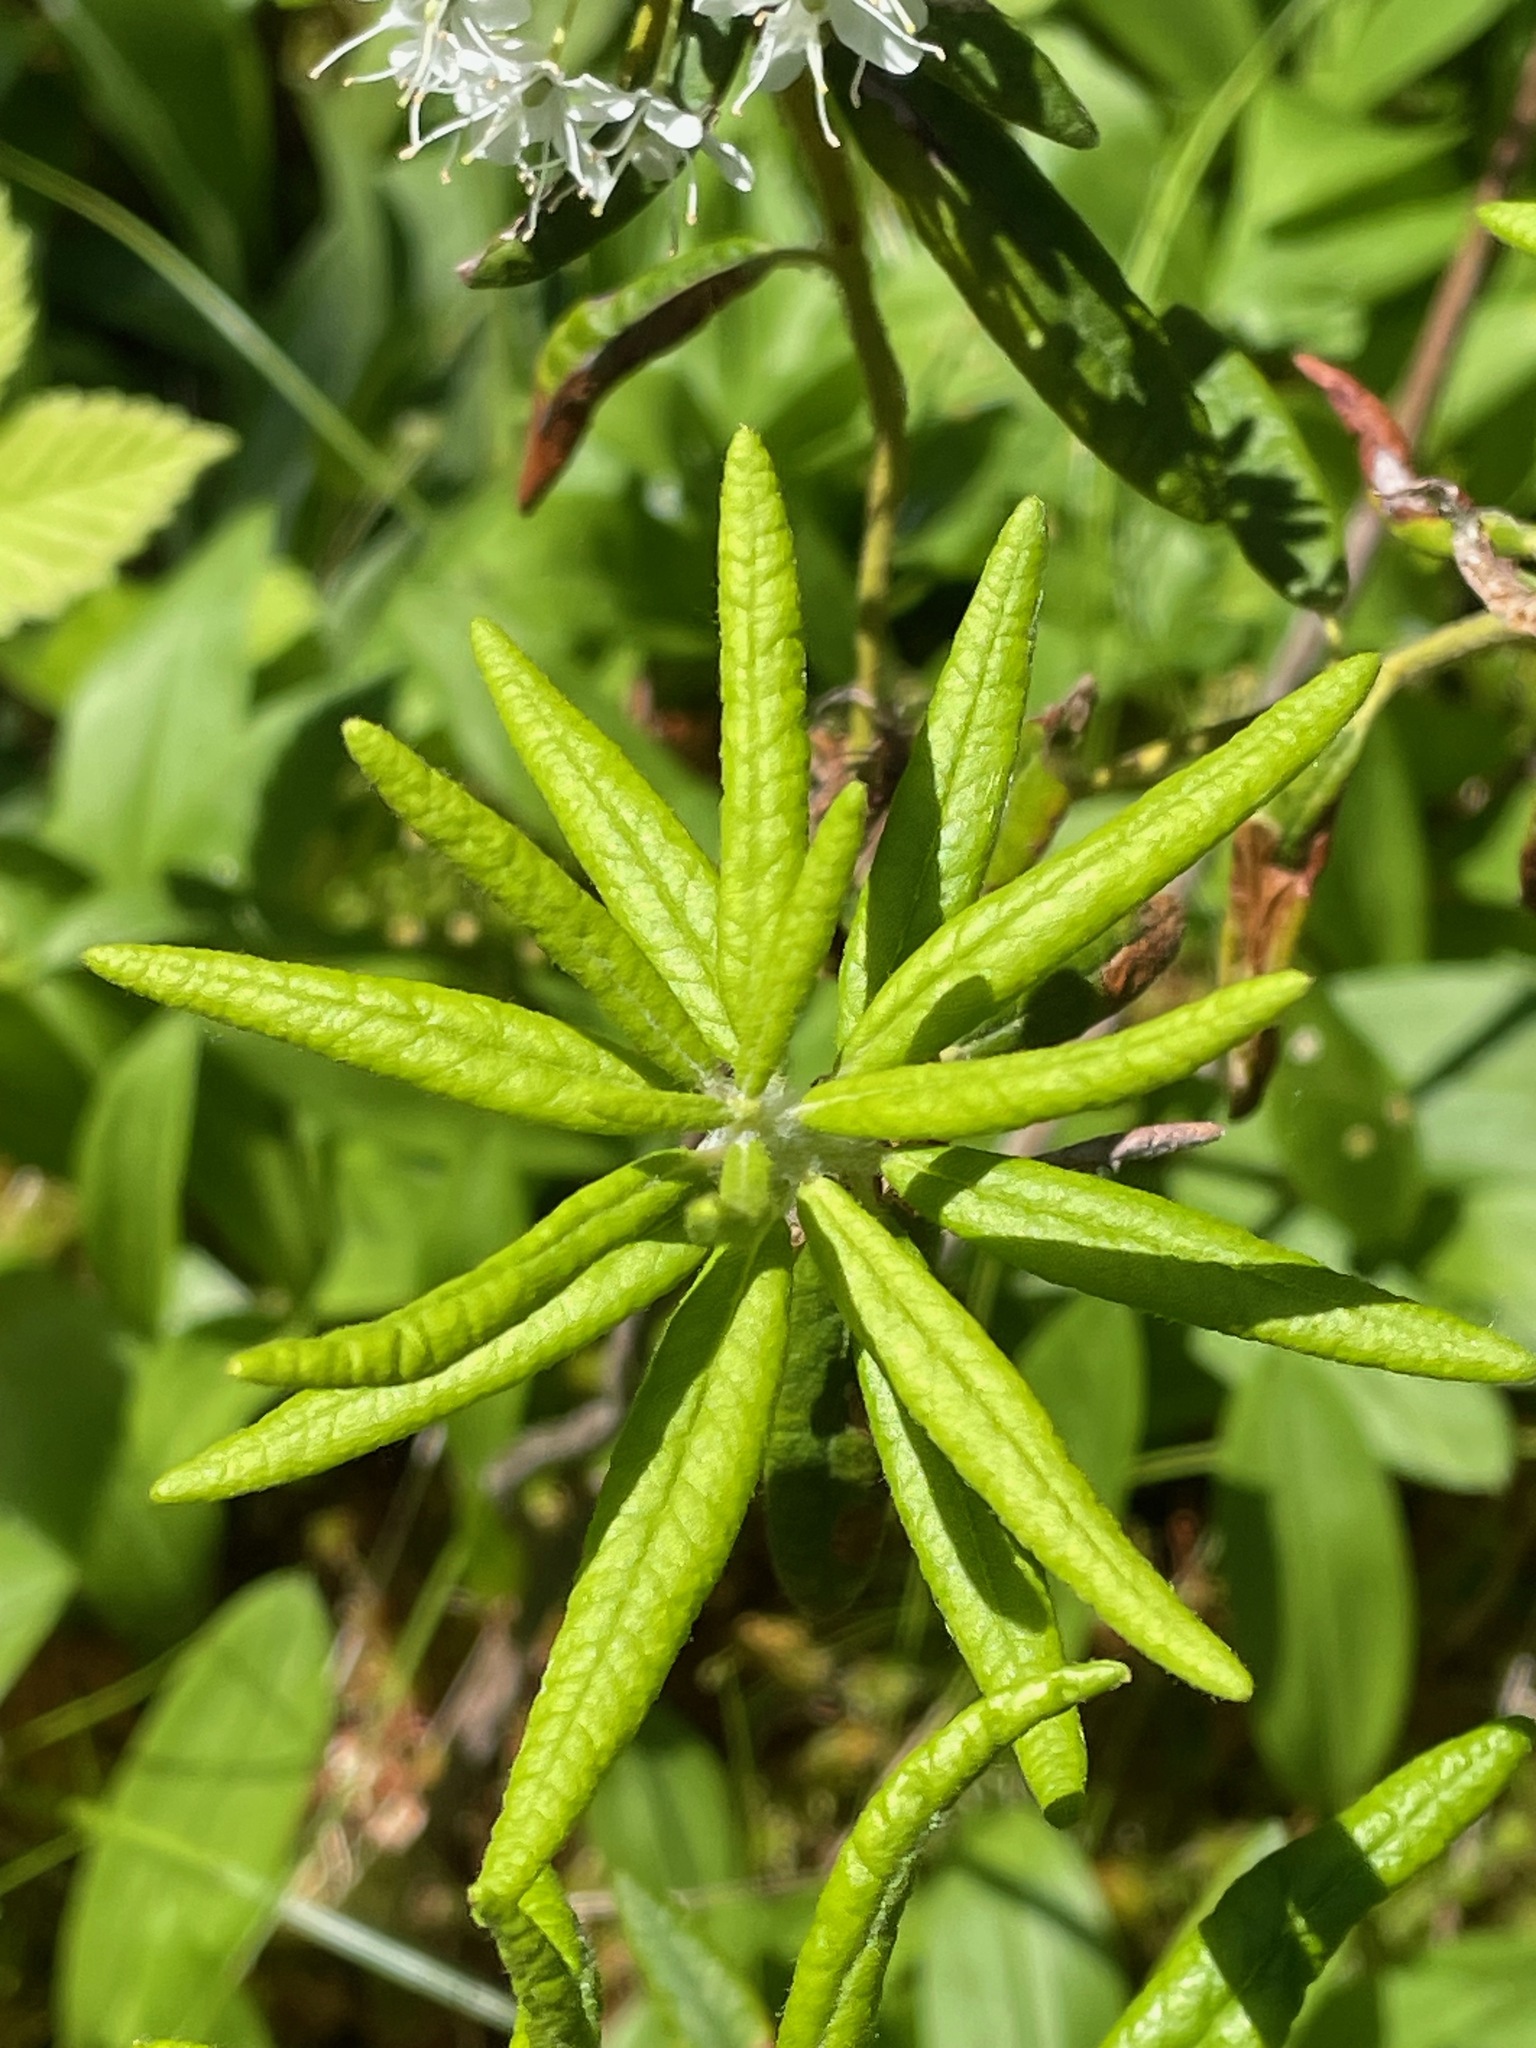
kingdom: Plantae
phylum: Tracheophyta
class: Magnoliopsida
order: Ericales
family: Ericaceae
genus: Rhododendron
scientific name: Rhododendron groenlandicum
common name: Bog labrador tea
